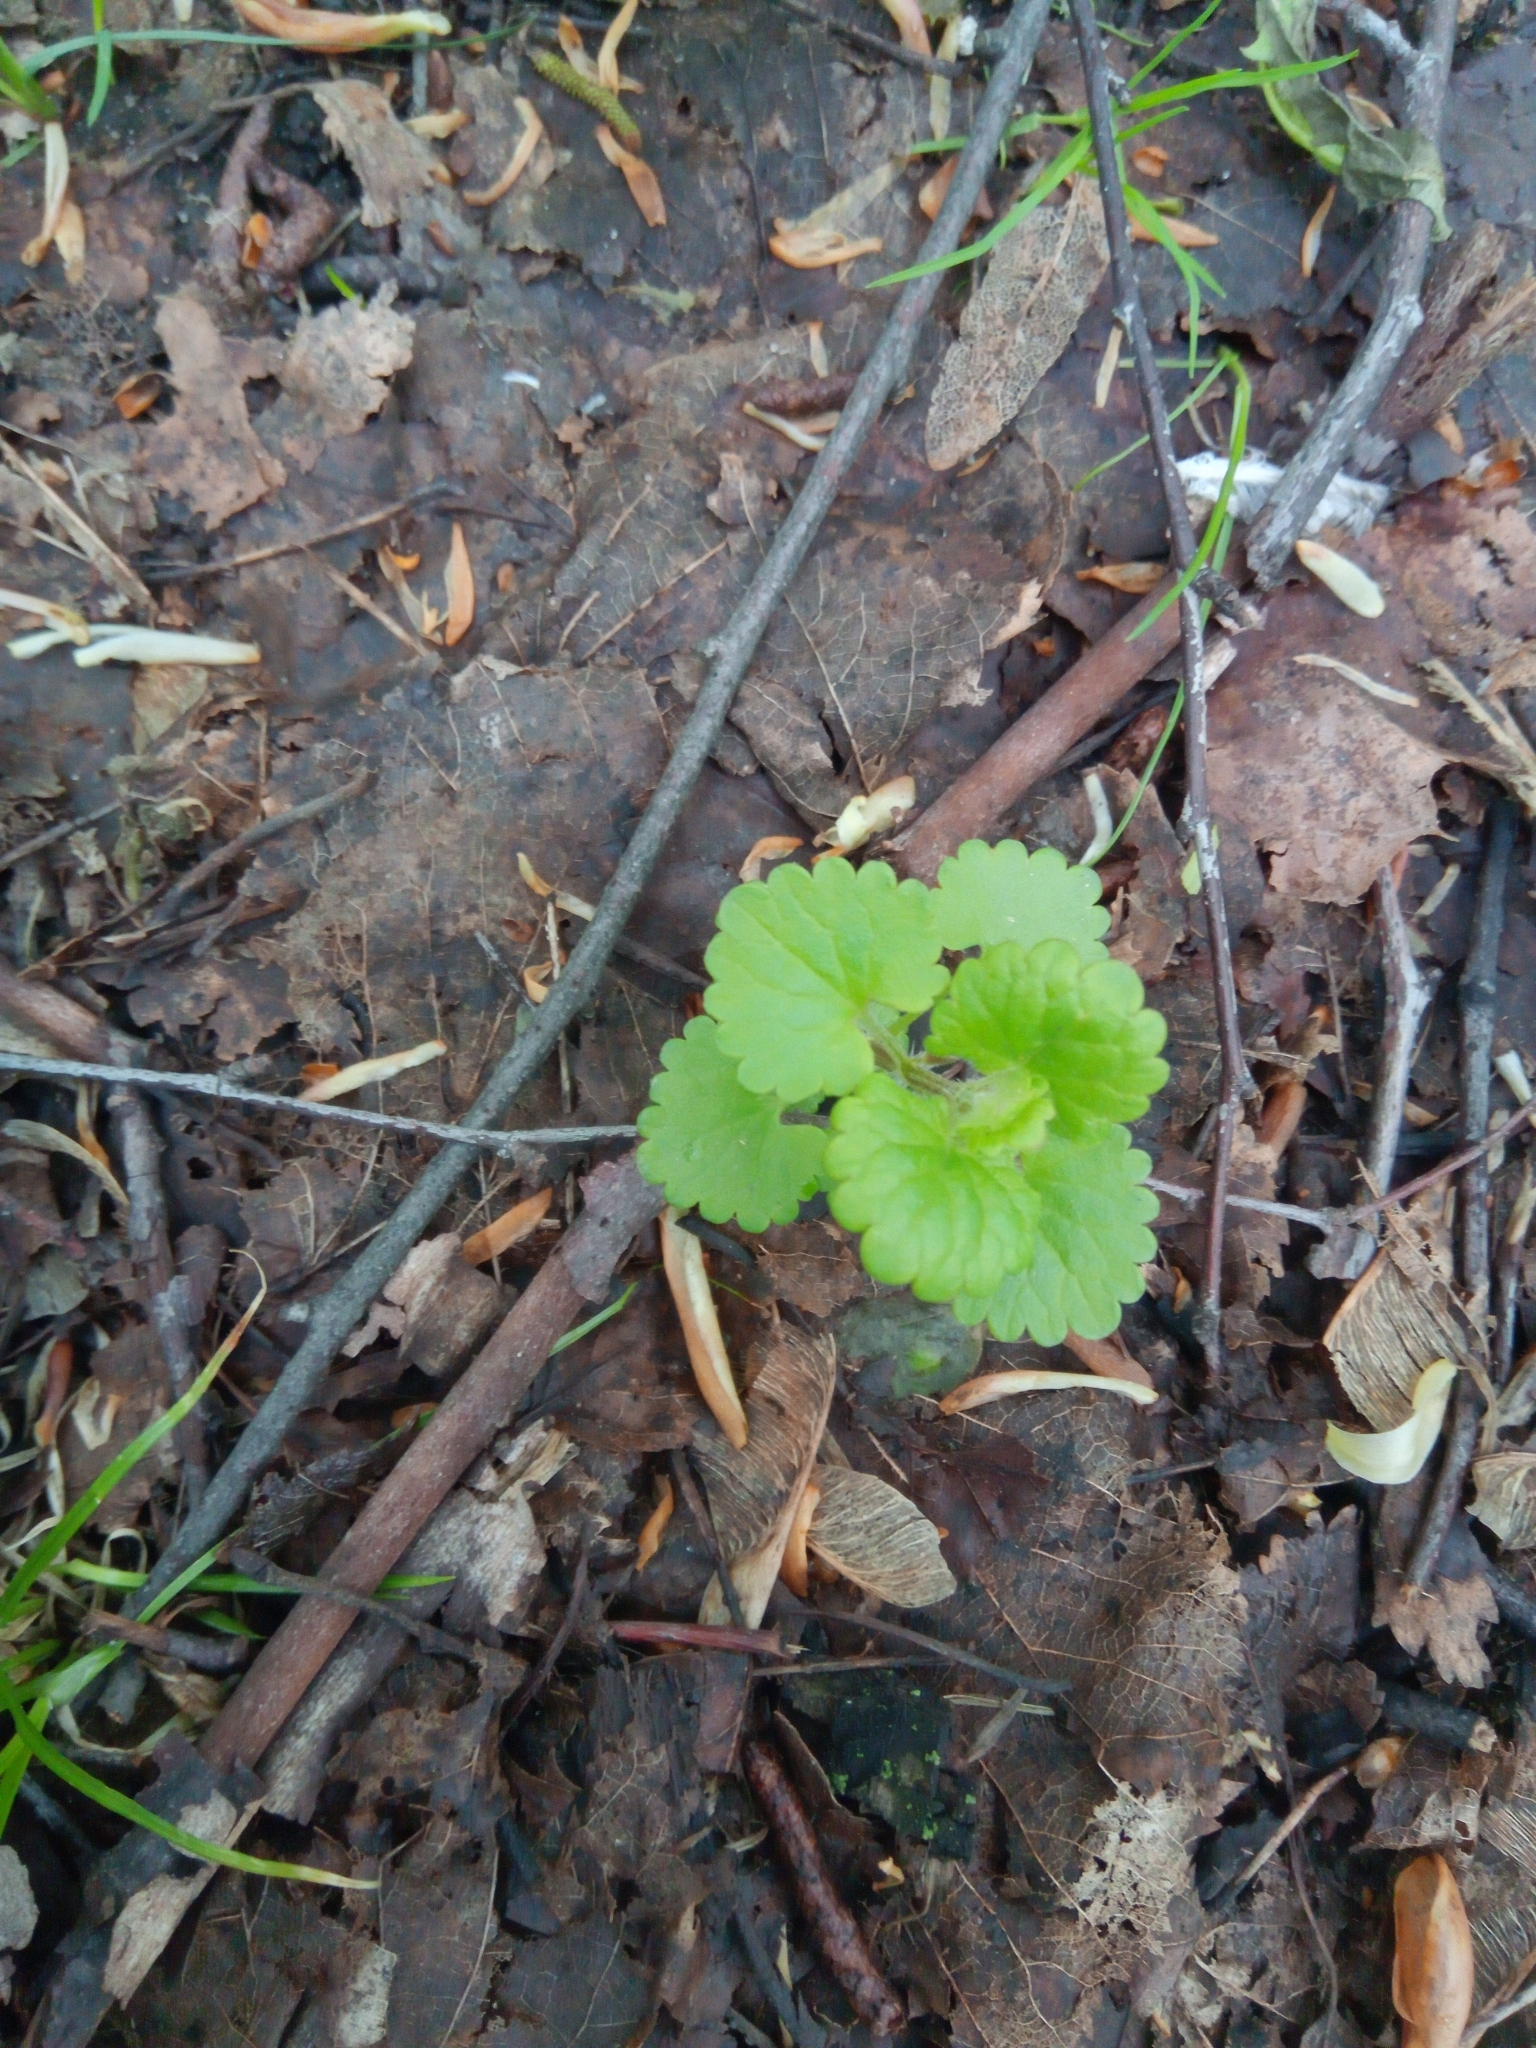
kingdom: Plantae
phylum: Tracheophyta
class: Magnoliopsida
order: Lamiales
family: Lamiaceae
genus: Glechoma
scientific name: Glechoma hederacea
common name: Ground ivy
